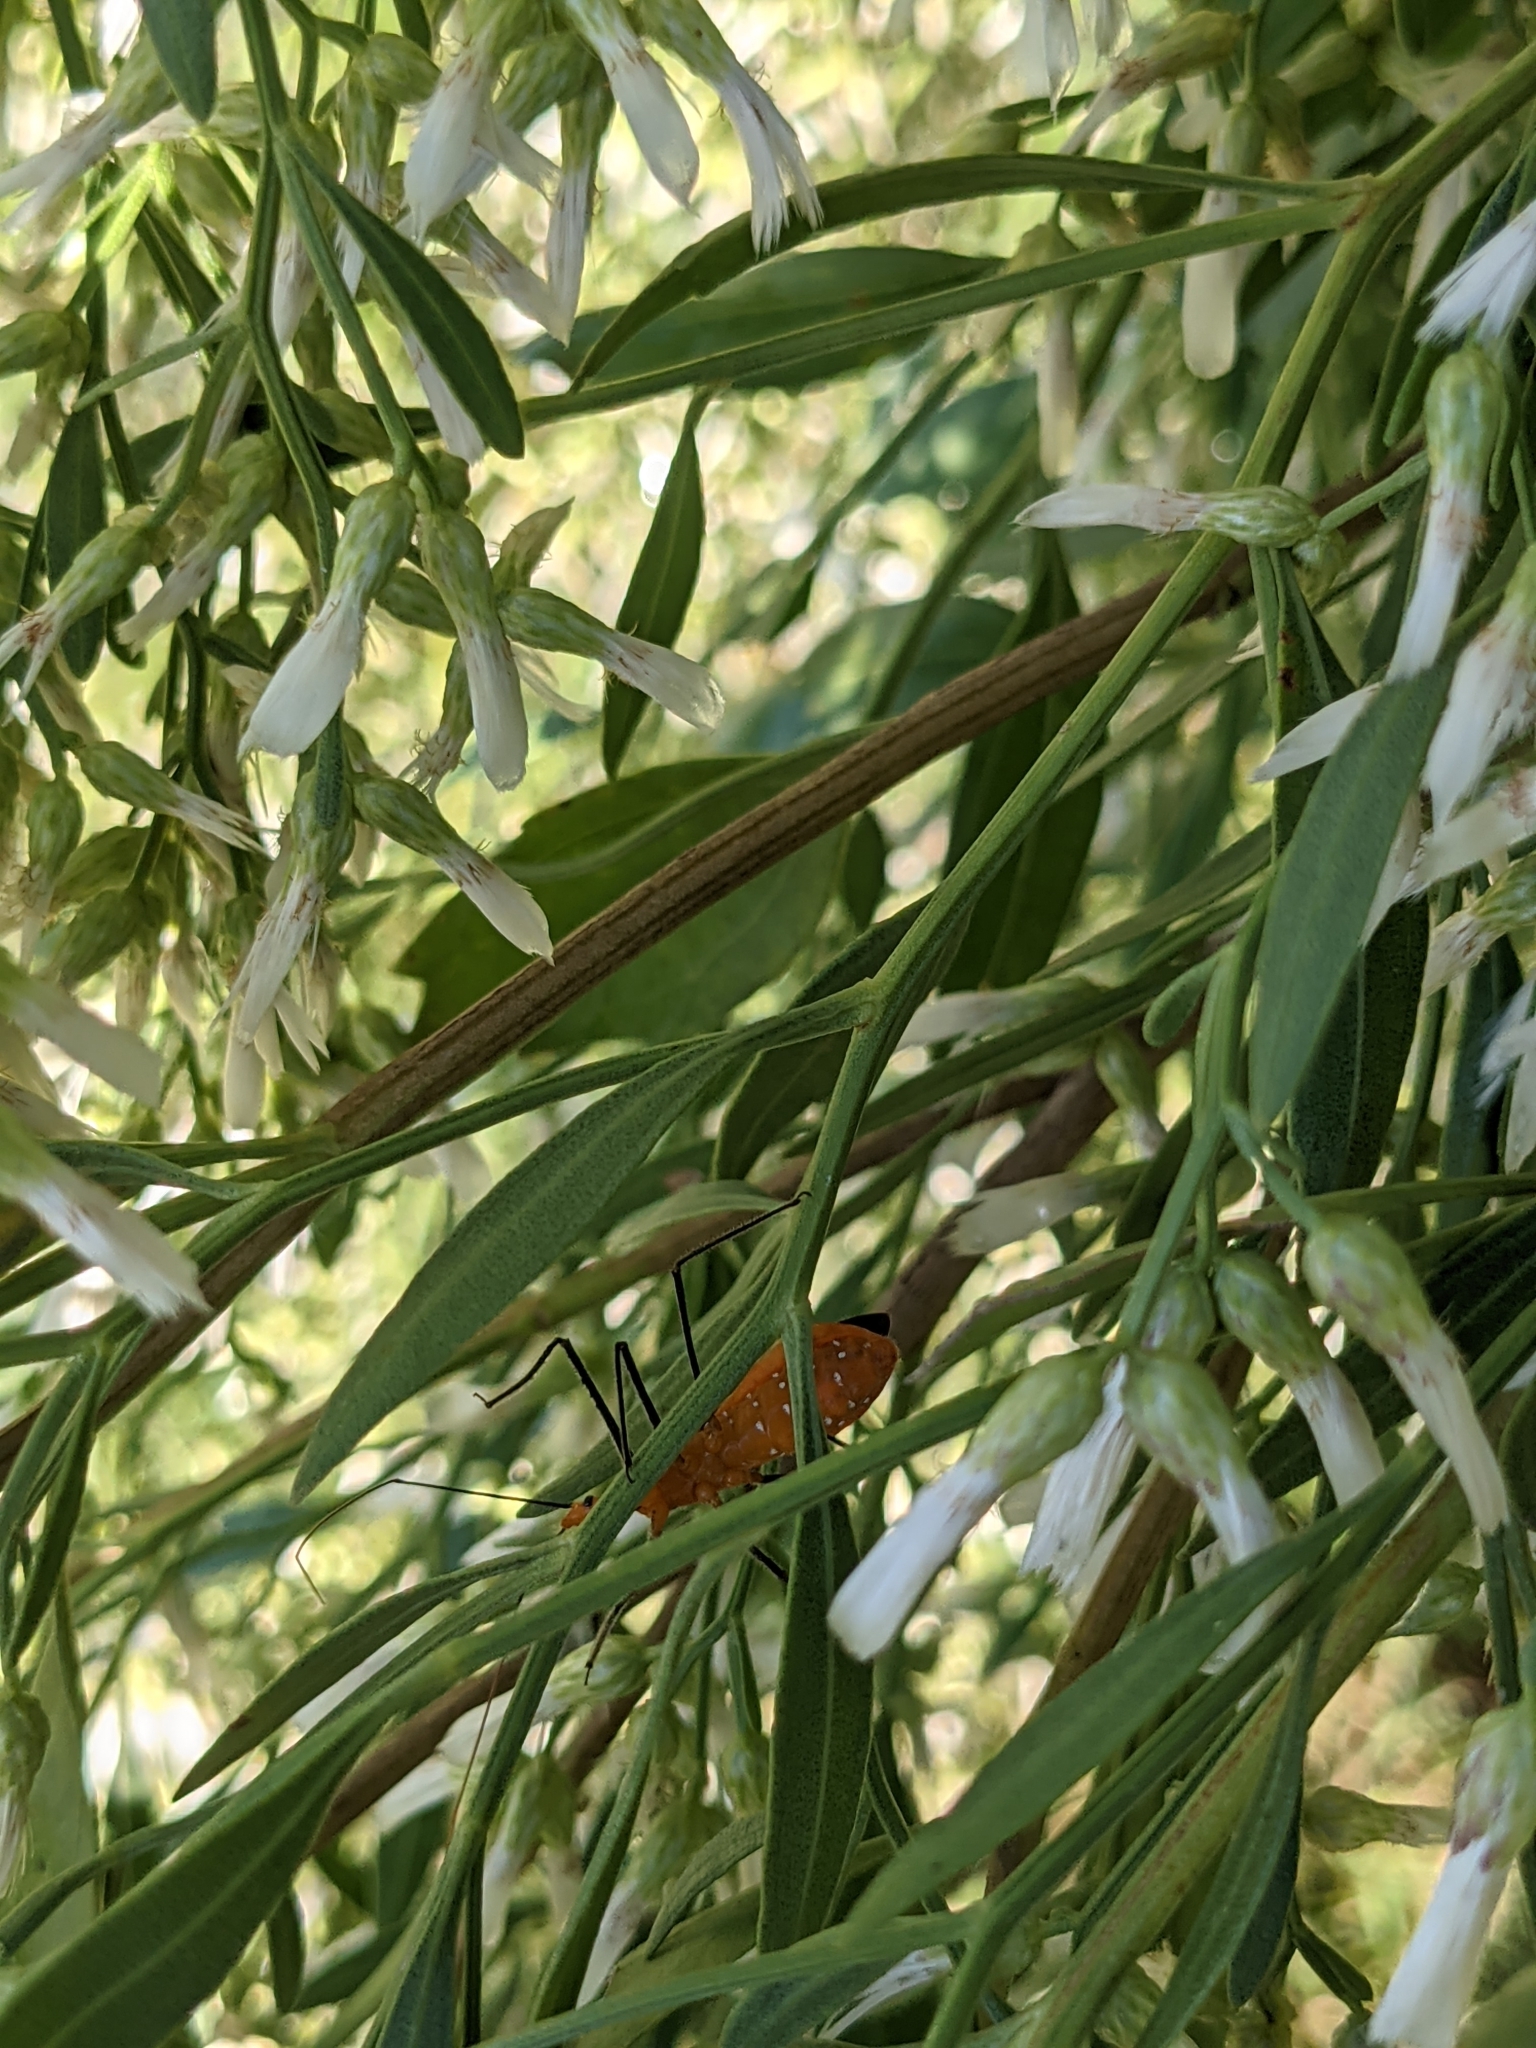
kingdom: Animalia
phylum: Arthropoda
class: Insecta
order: Hemiptera
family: Reduviidae
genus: Zelus
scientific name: Zelus longipes
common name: Milkweed assassin bug
